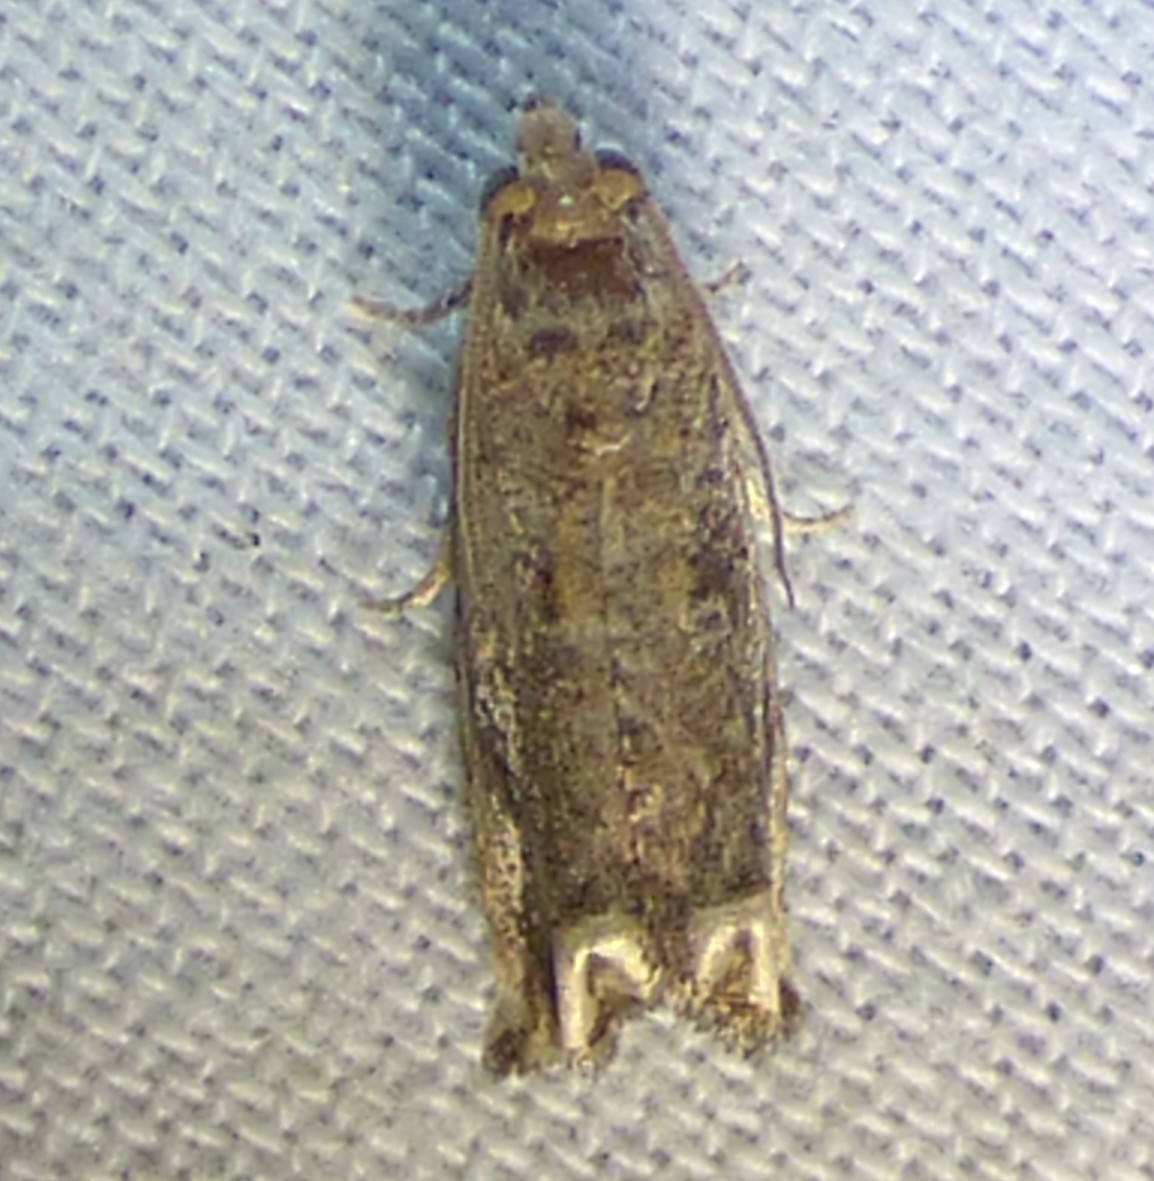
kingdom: Animalia
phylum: Arthropoda
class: Insecta
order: Lepidoptera
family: Tortricidae
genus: Epiblema
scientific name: Epiblema strenuana
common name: Ragweed borer moth
